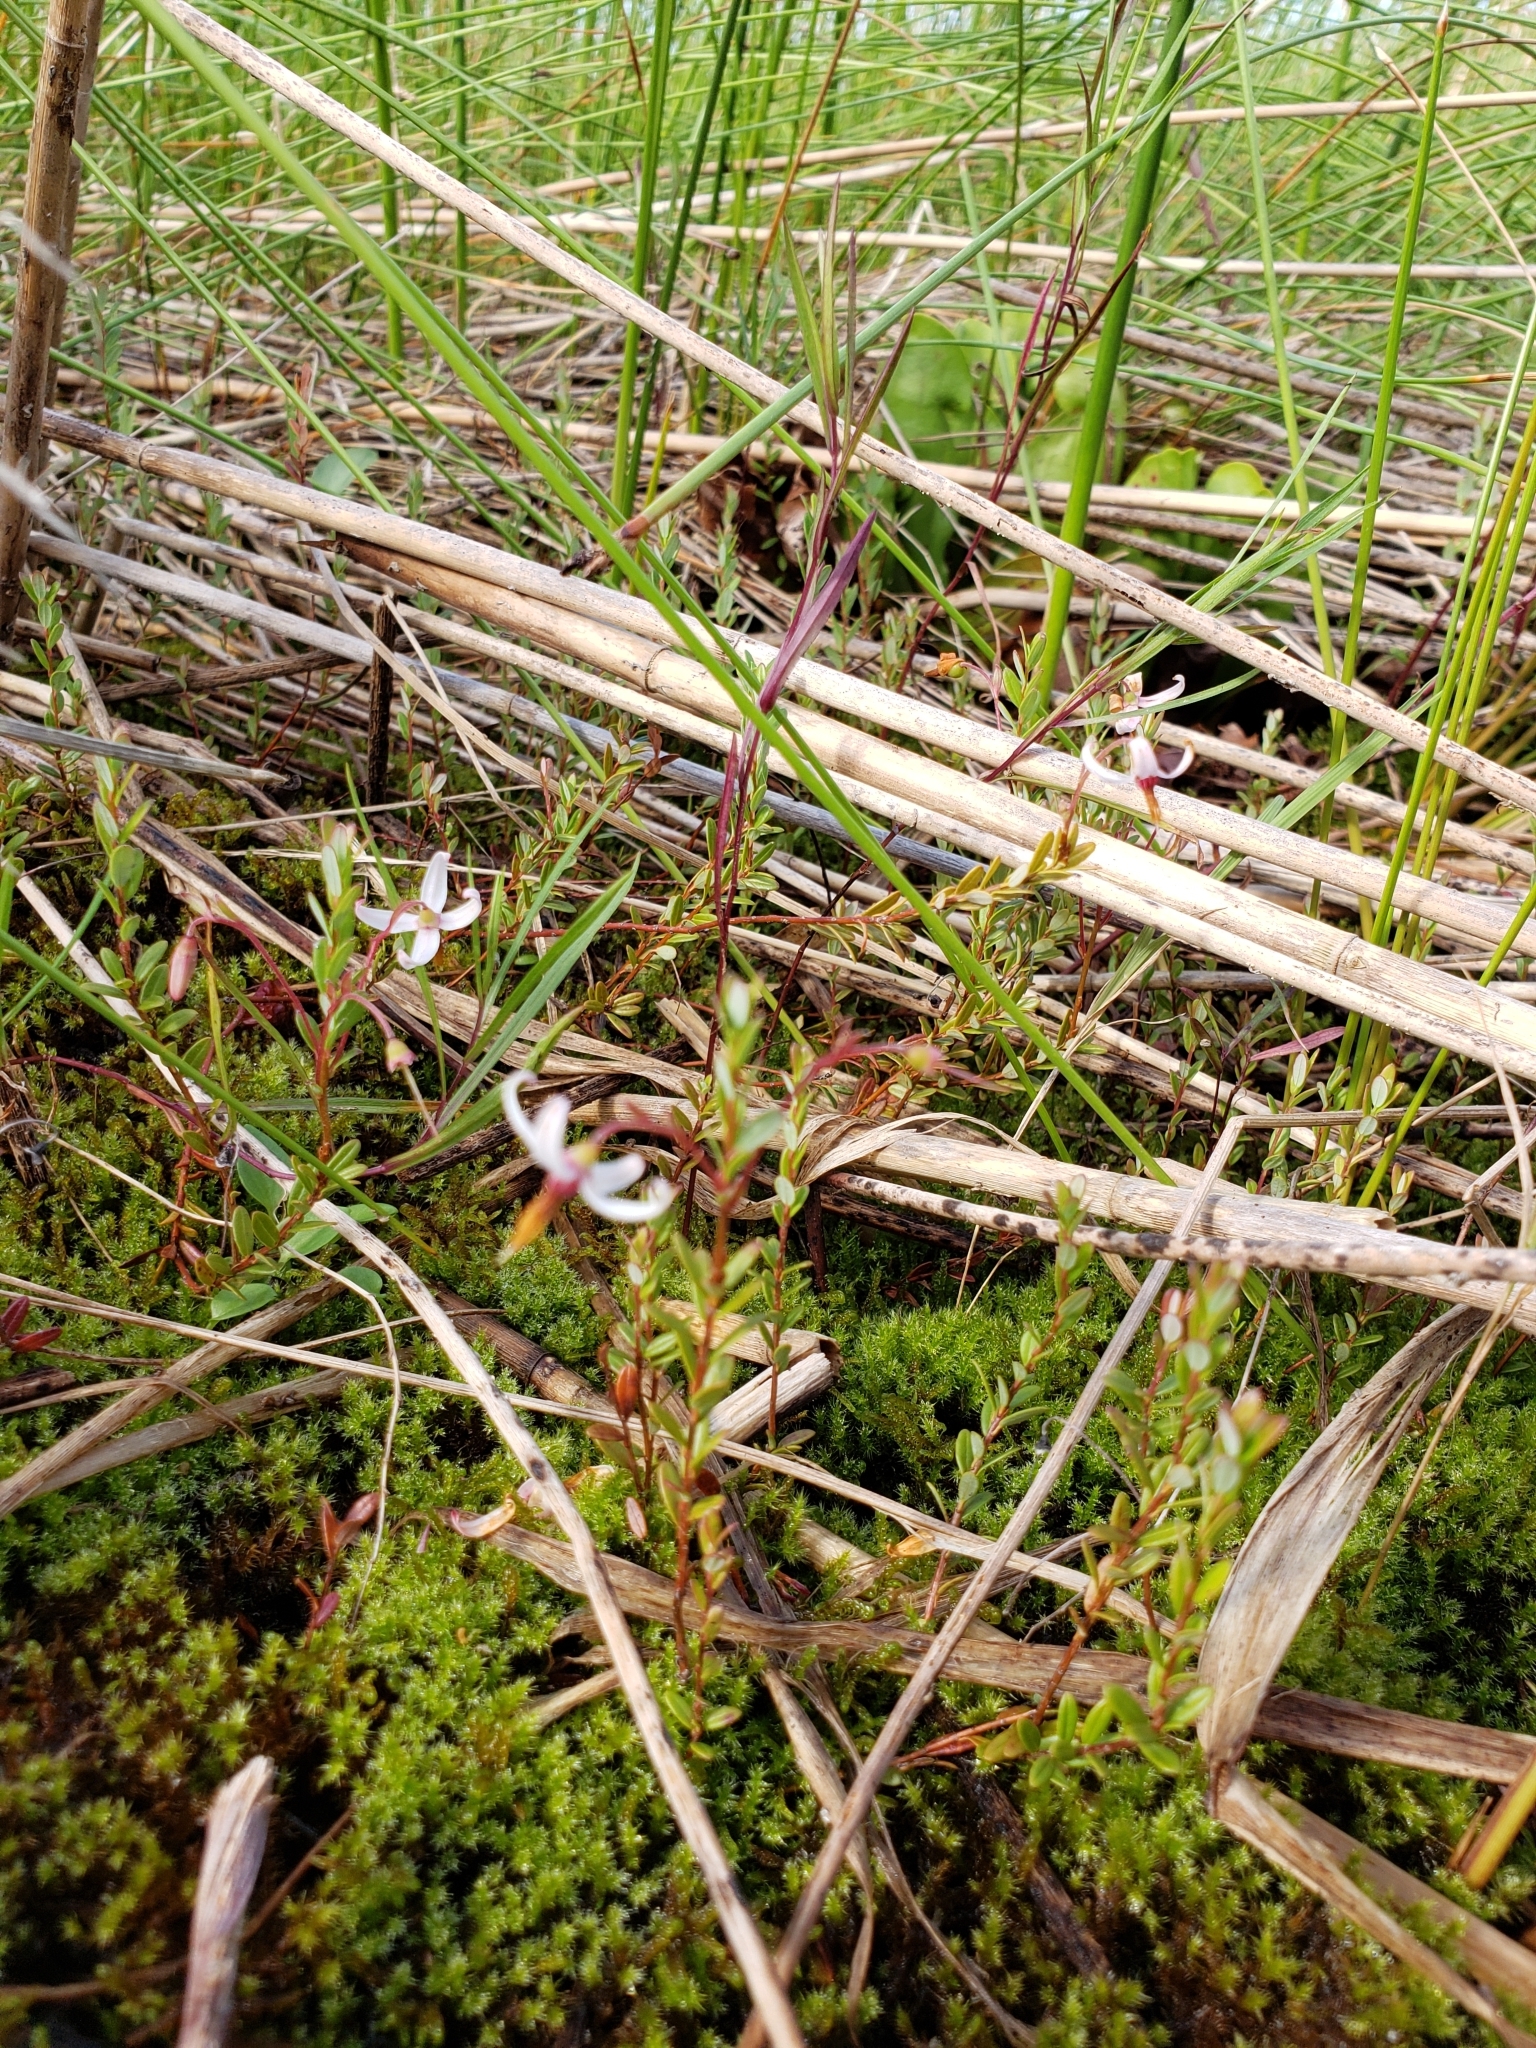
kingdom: Plantae
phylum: Tracheophyta
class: Magnoliopsida
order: Ericales
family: Ericaceae
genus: Vaccinium
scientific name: Vaccinium macrocarpon
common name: American cranberry
